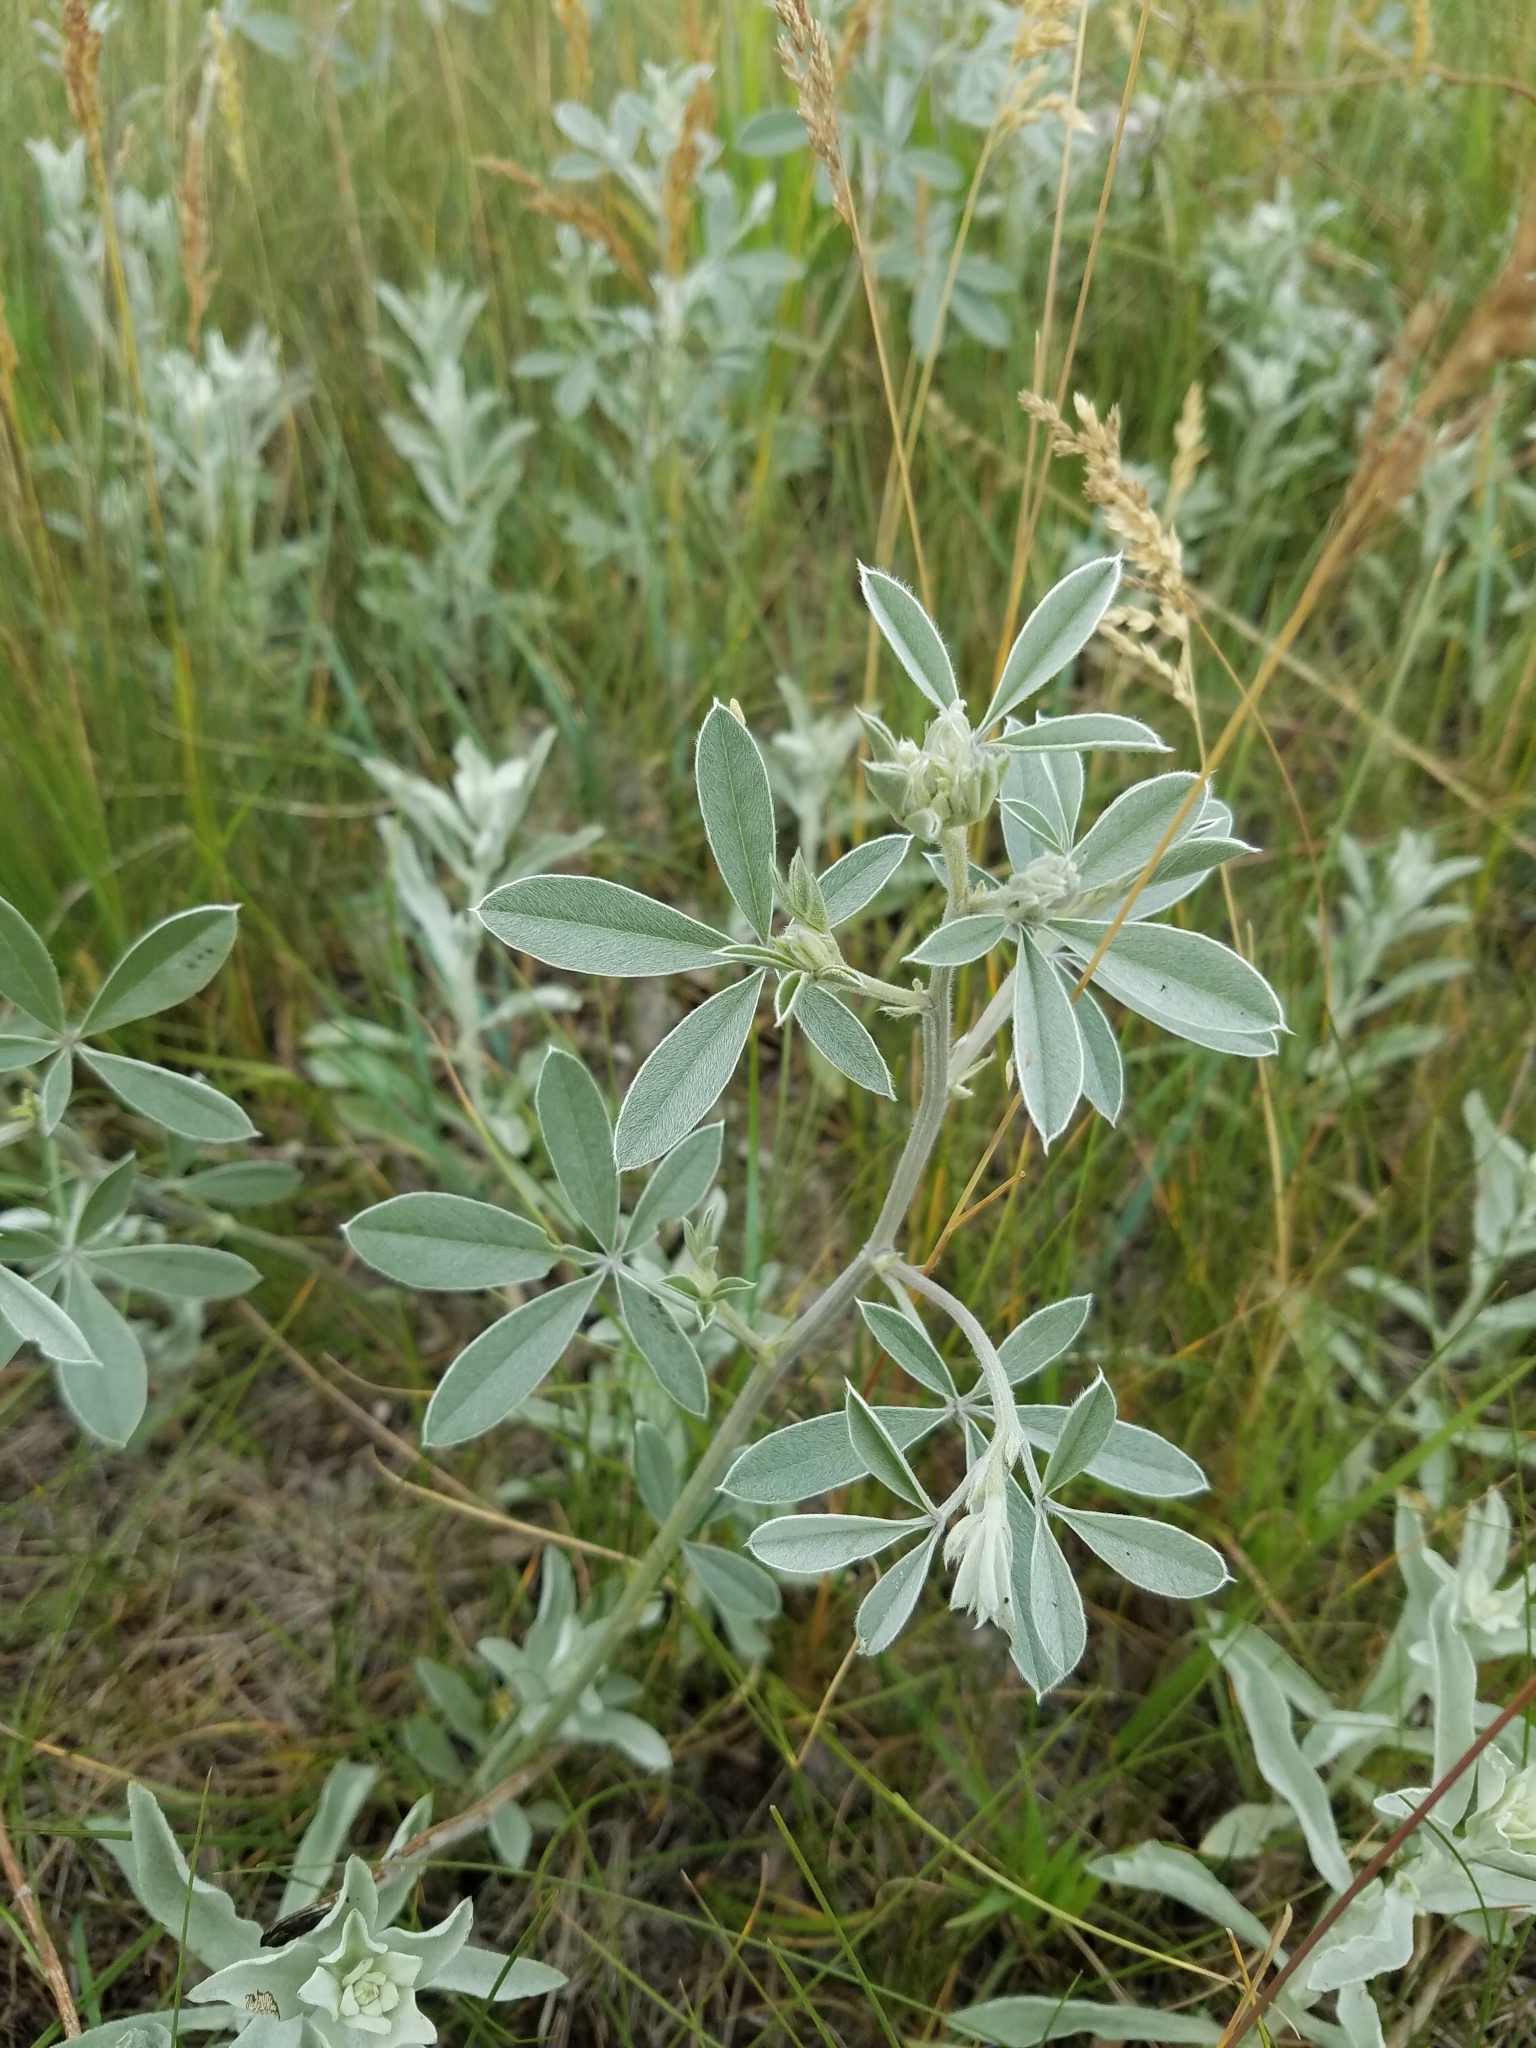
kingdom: Plantae
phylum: Tracheophyta
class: Magnoliopsida
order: Fabales
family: Fabaceae
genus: Pediomelum
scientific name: Pediomelum argophyllum
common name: Silver-leaved indian breadroot
